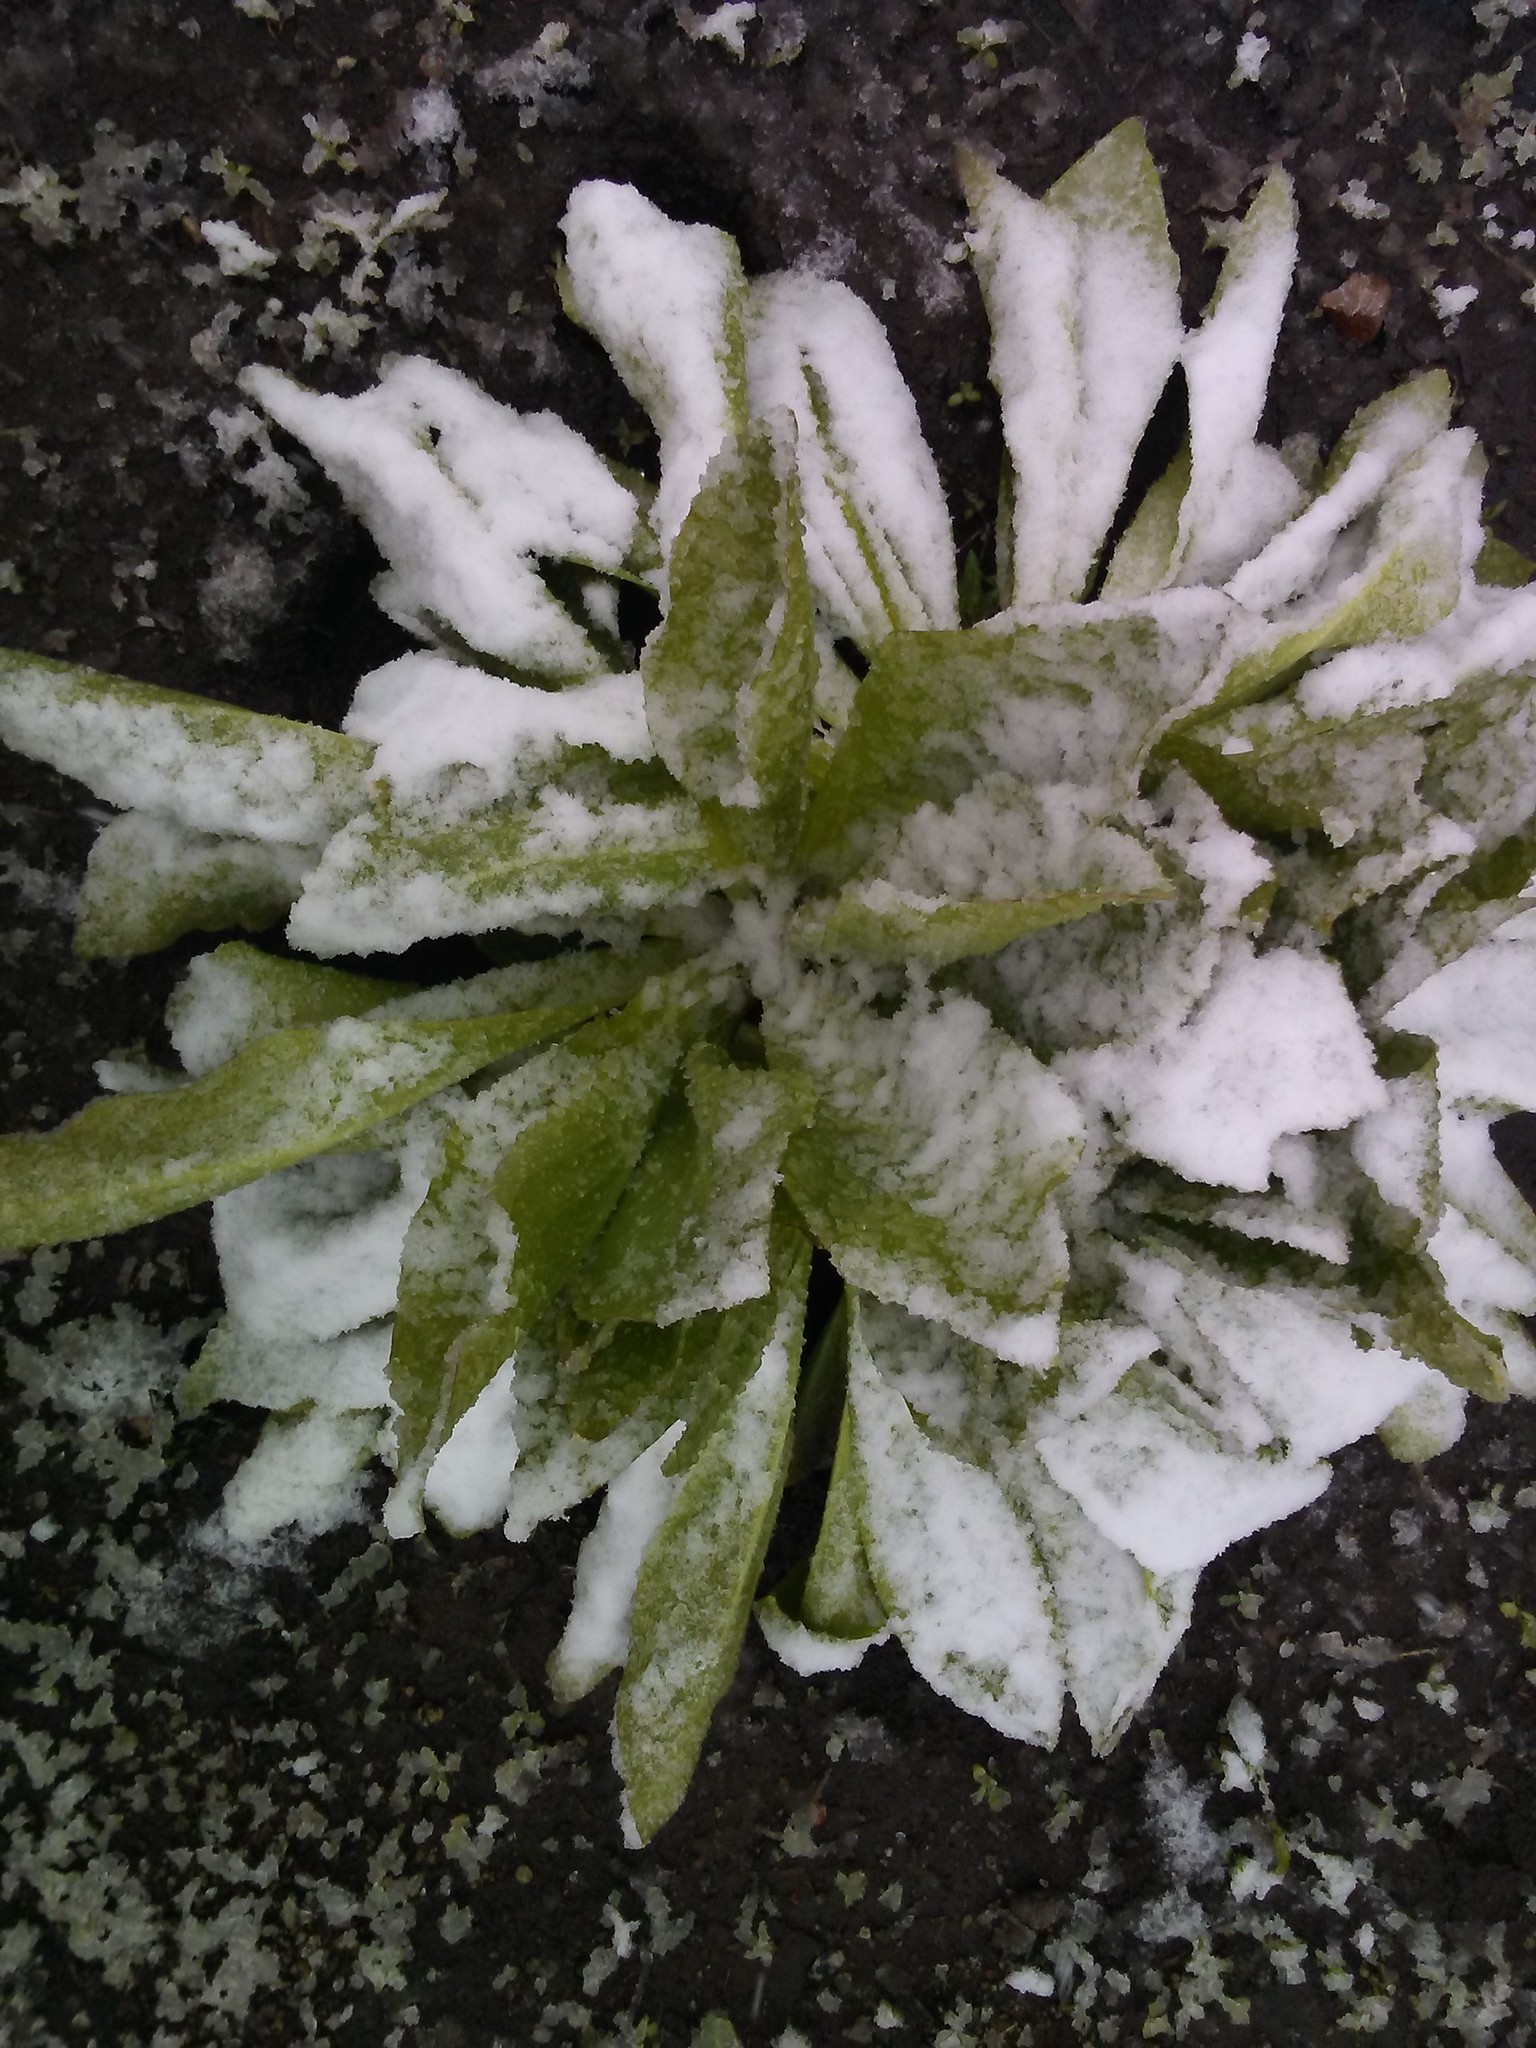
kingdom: Plantae
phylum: Tracheophyta
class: Magnoliopsida
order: Gentianales
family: Gentianaceae
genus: Frasera
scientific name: Frasera speciosa
